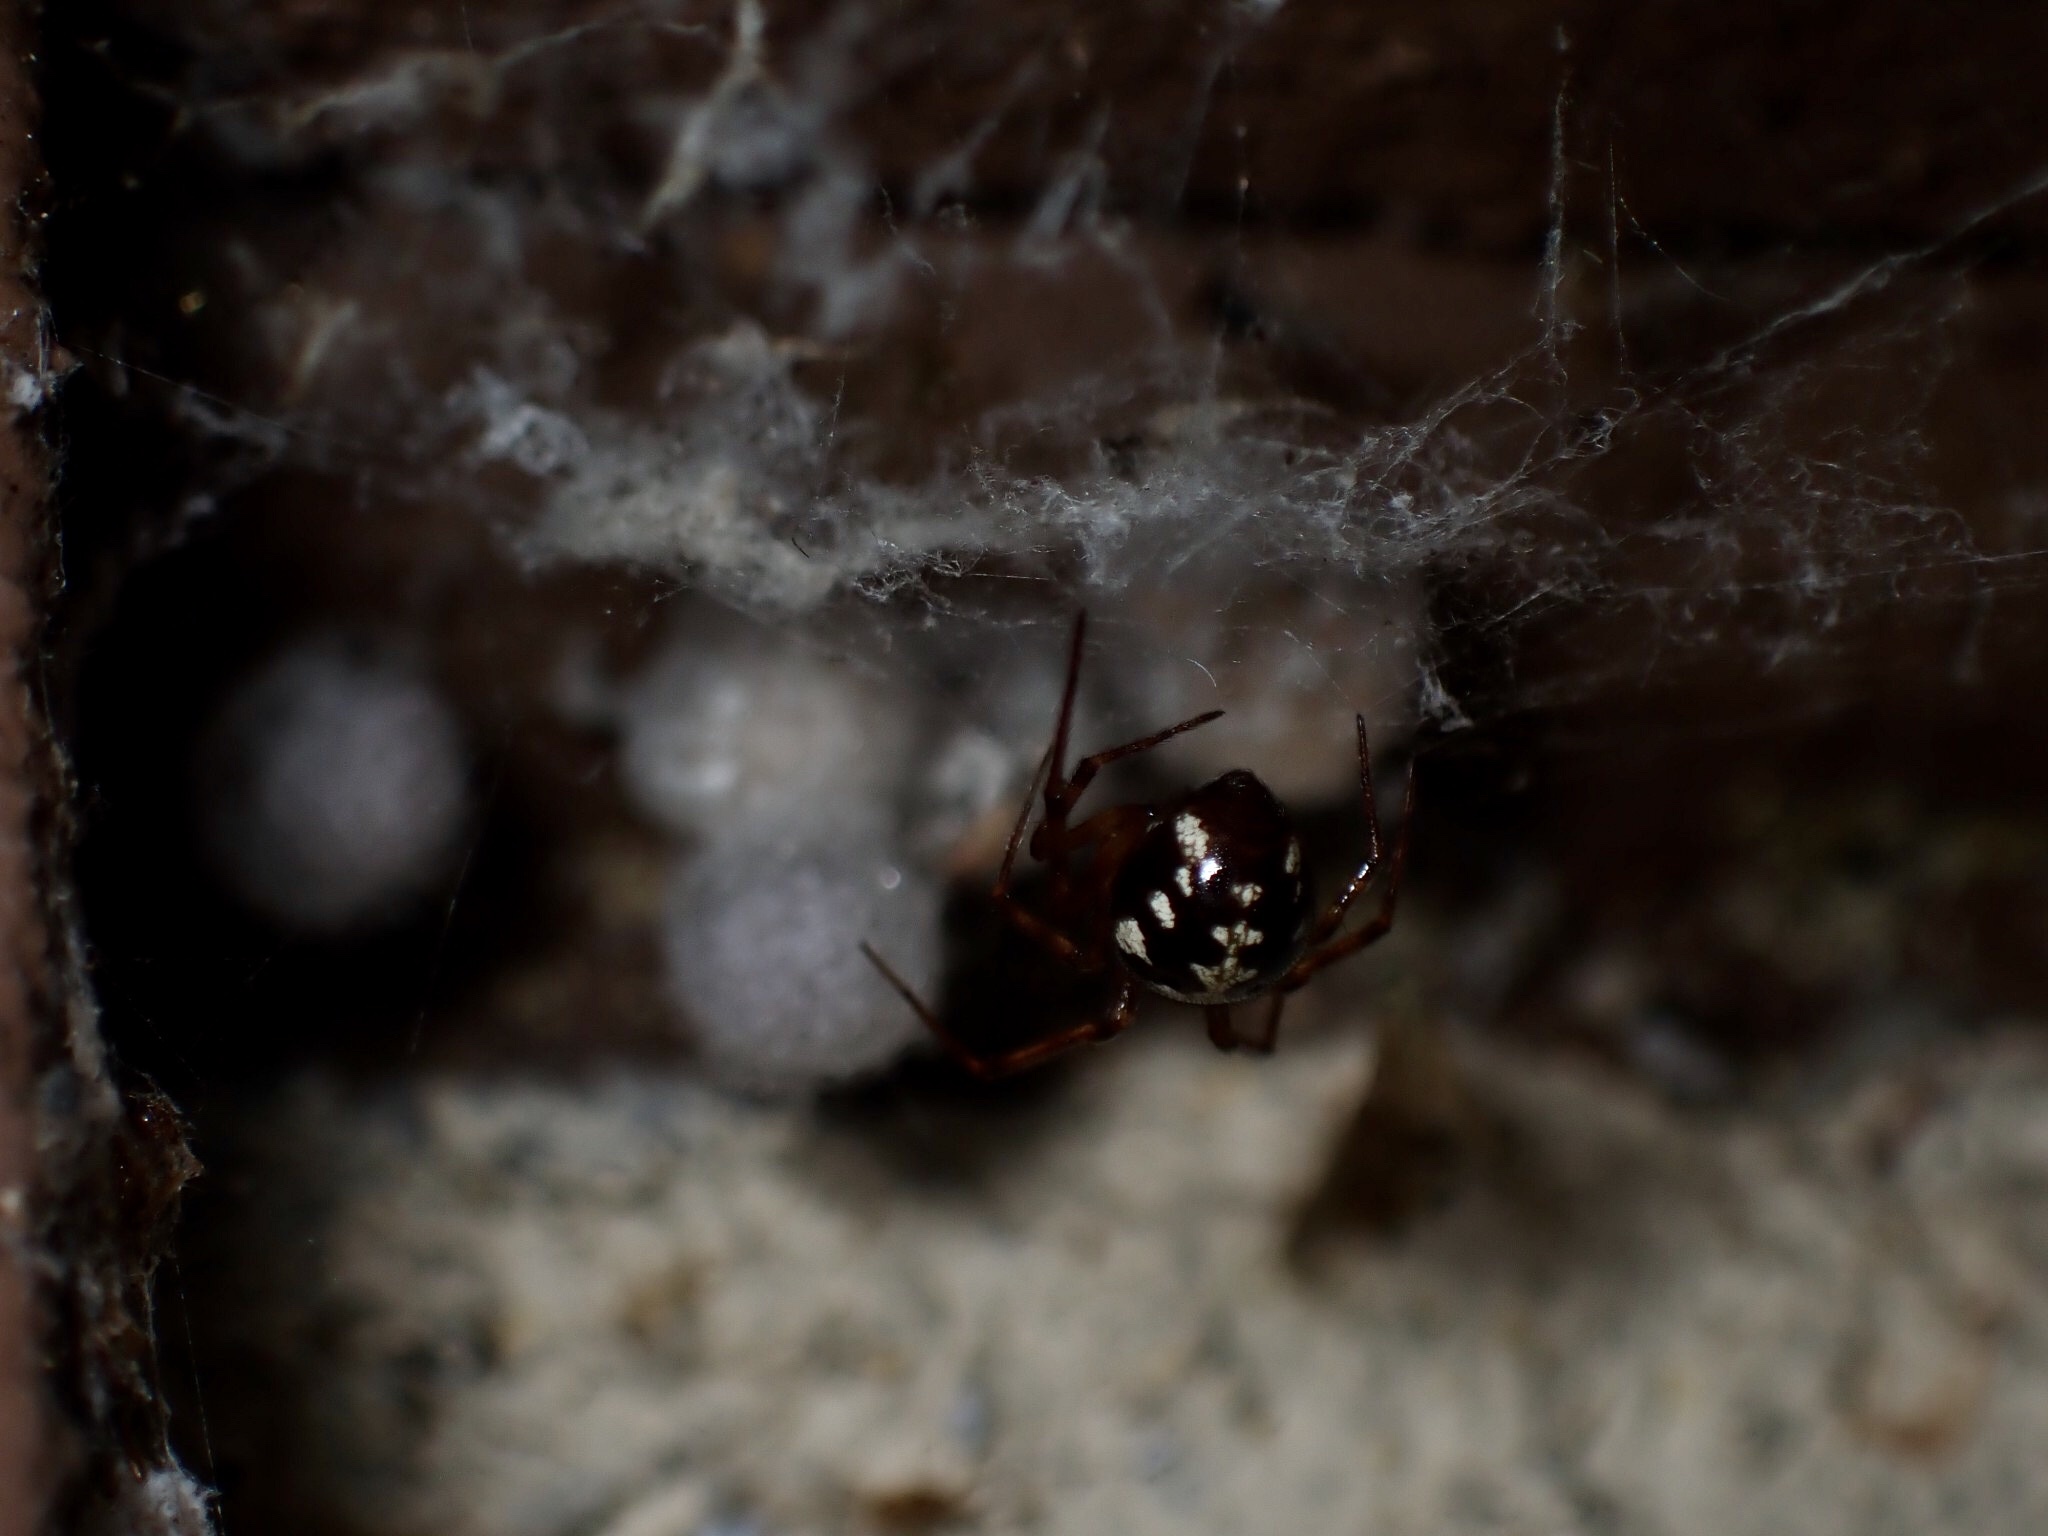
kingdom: Animalia
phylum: Arthropoda
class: Arachnida
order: Araneae
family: Theridiidae
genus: Steatoda
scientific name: Steatoda triangulosa
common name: Triangulate bud spider
